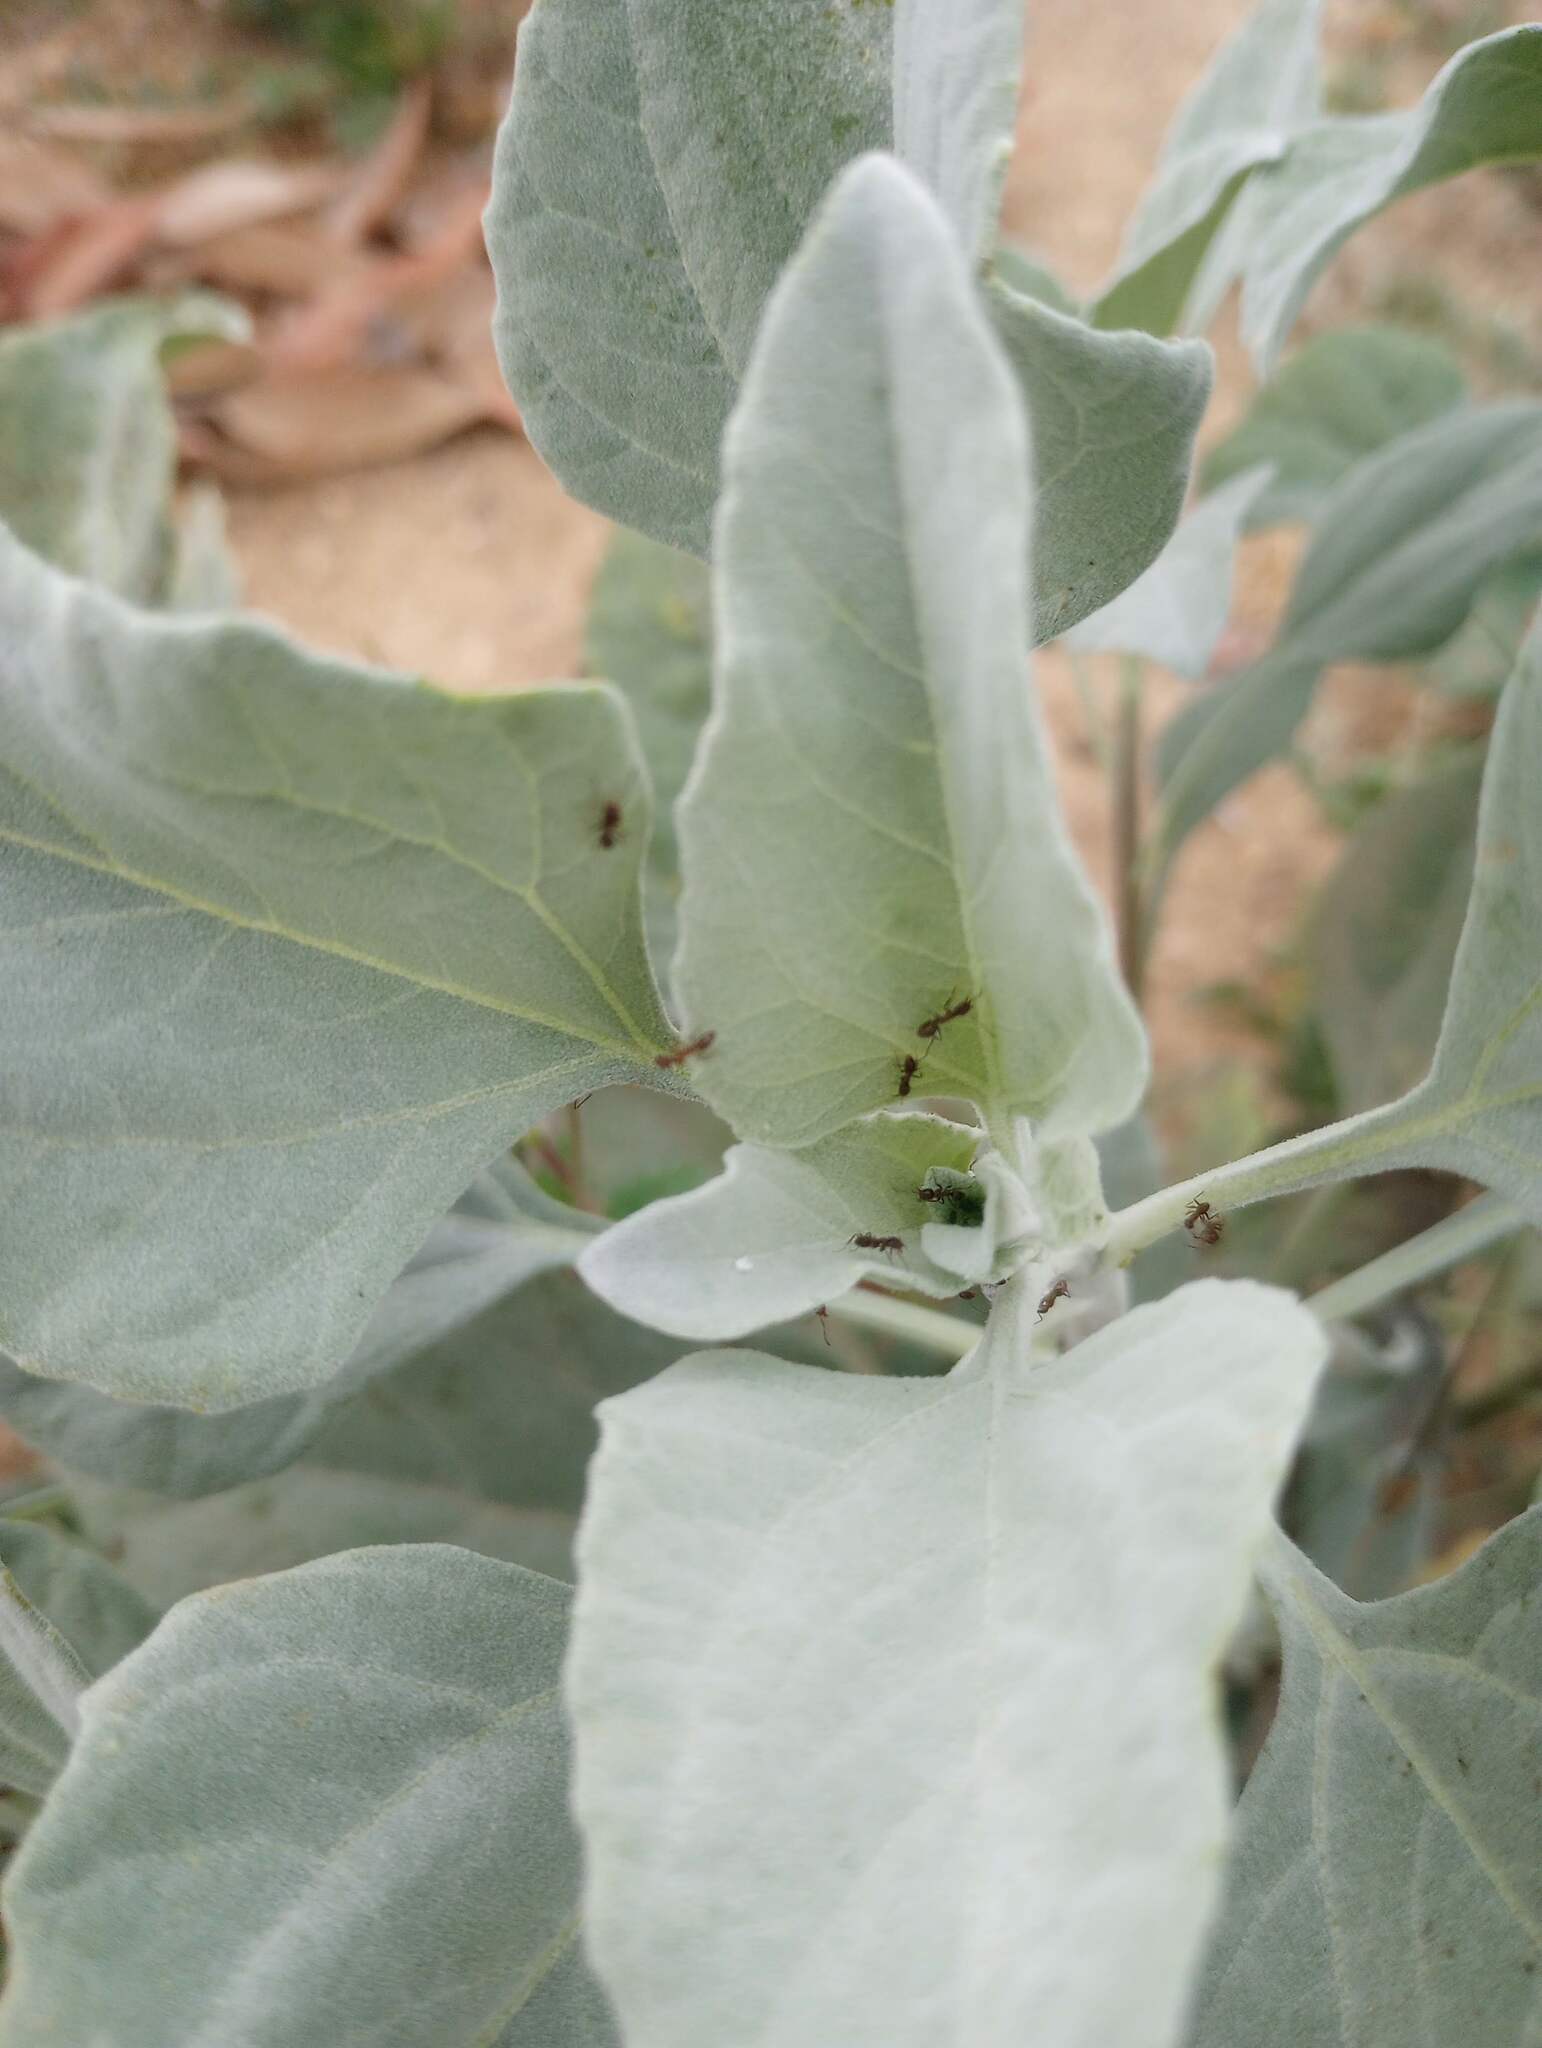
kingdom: Plantae
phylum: Tracheophyta
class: Magnoliopsida
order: Asterales
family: Asteraceae
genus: Encelia
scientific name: Encelia farinosa
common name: Brittlebush
